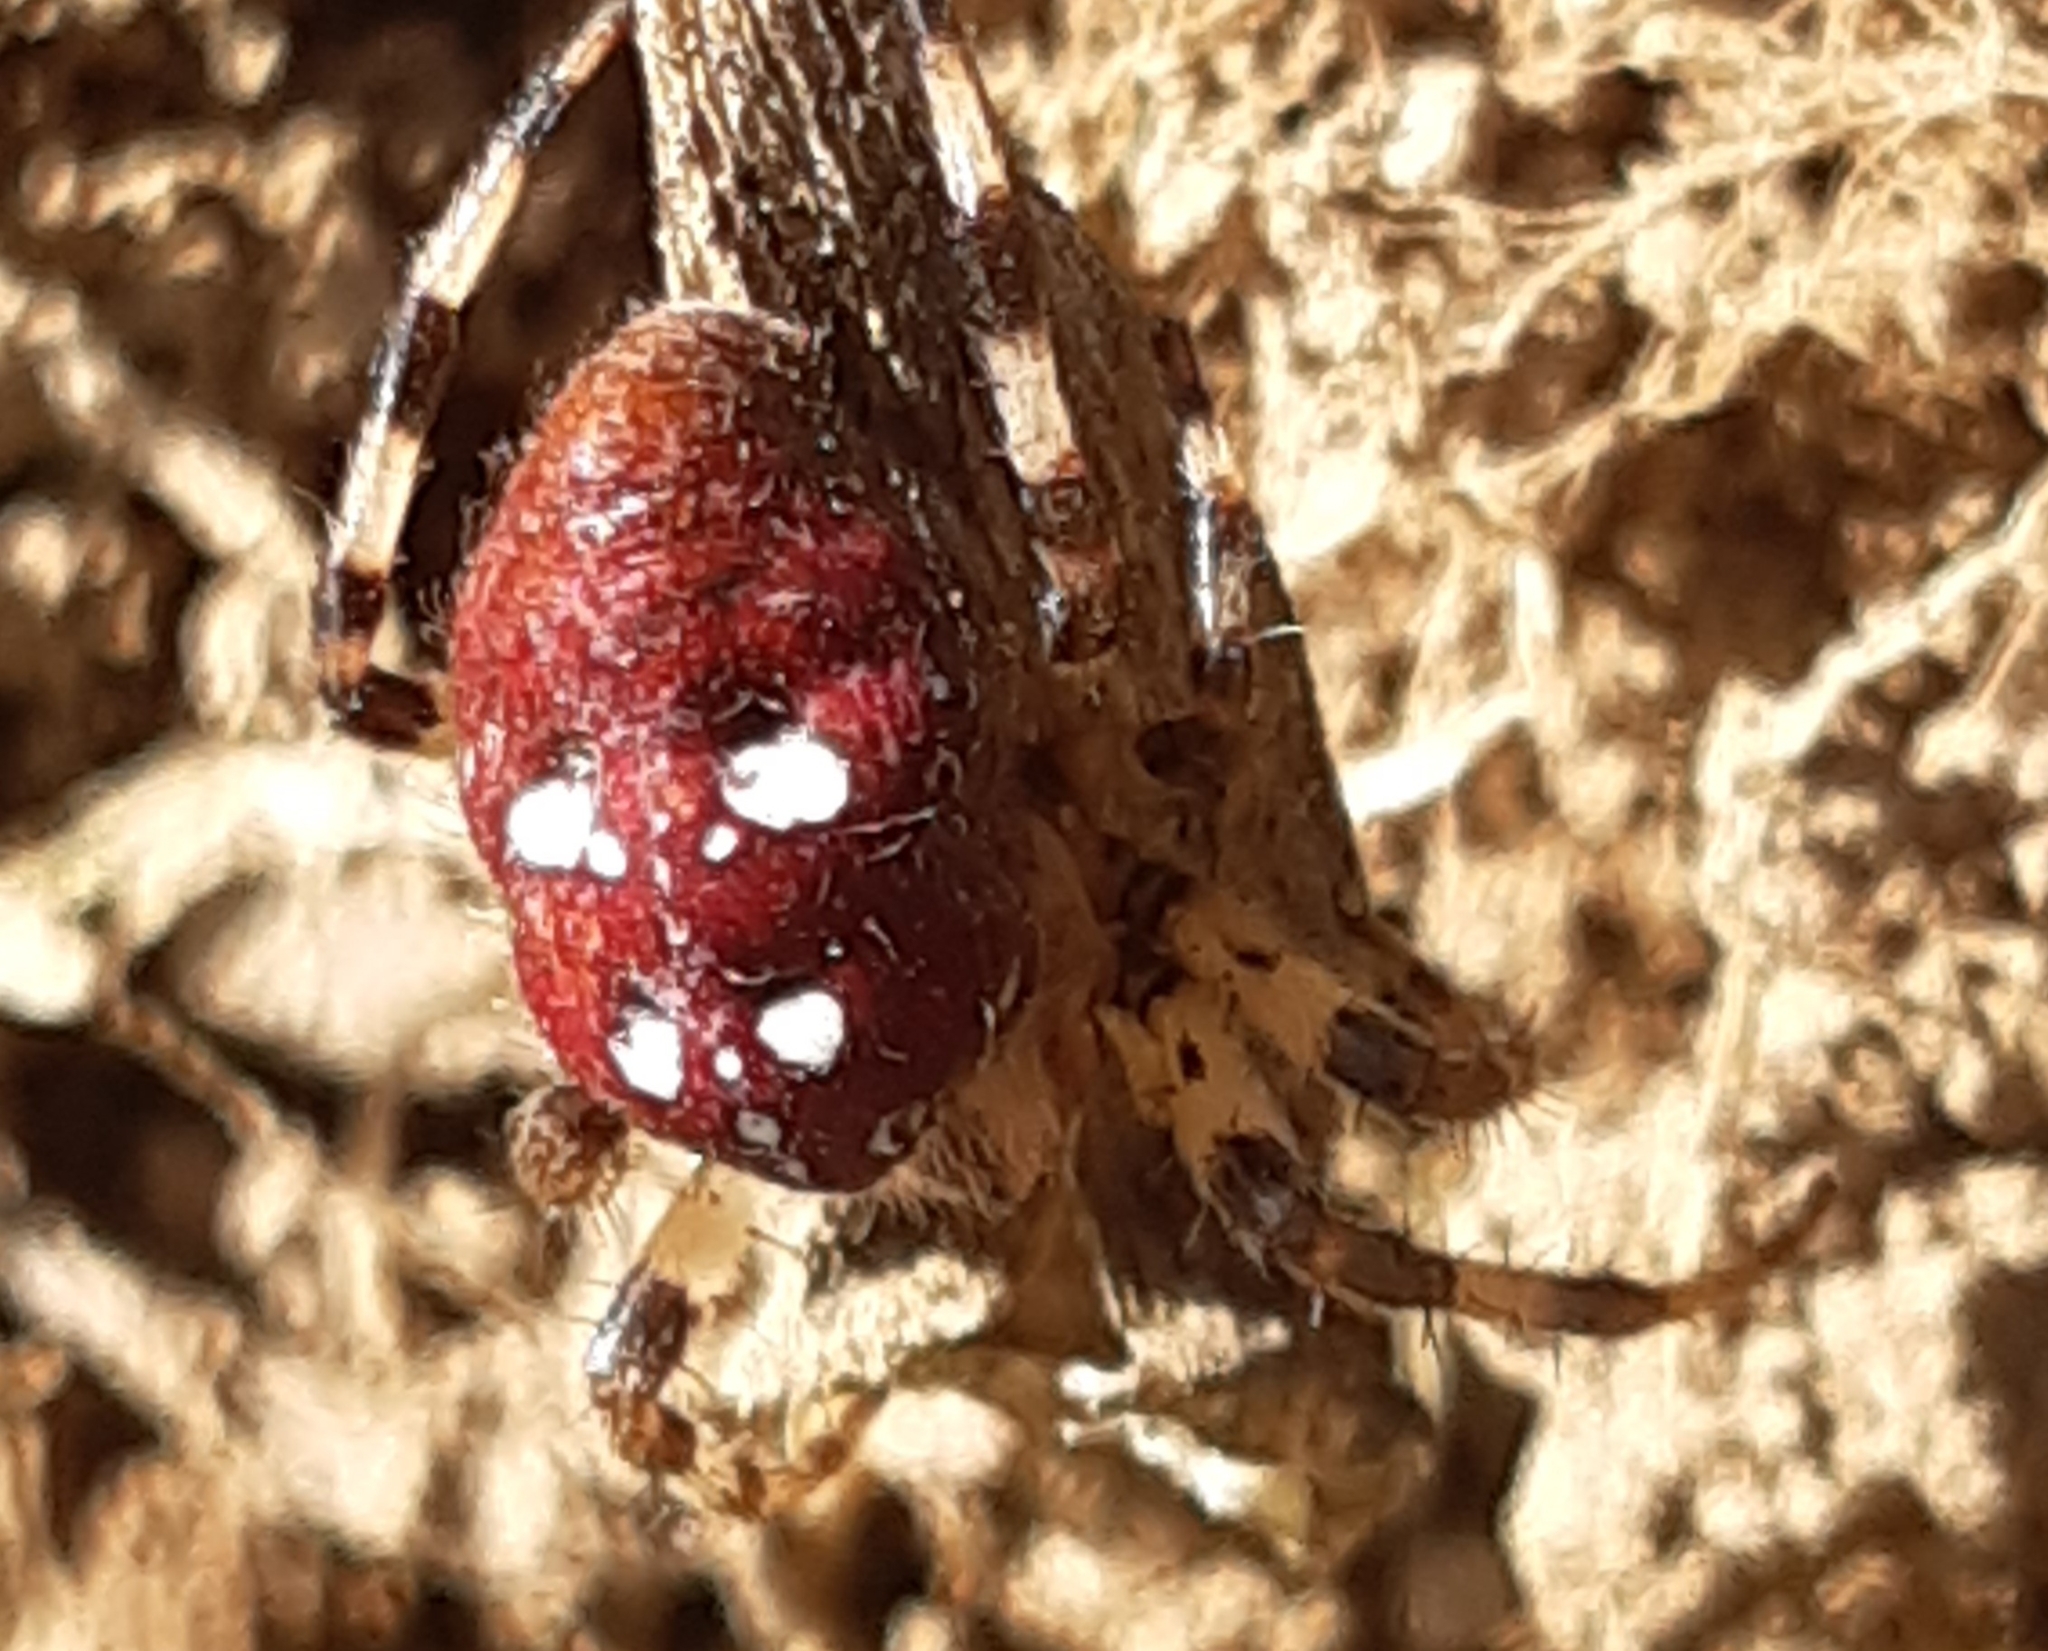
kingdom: Animalia
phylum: Arthropoda
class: Arachnida
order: Araneae
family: Araneidae
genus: Araneus
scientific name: Araneus quadratus
